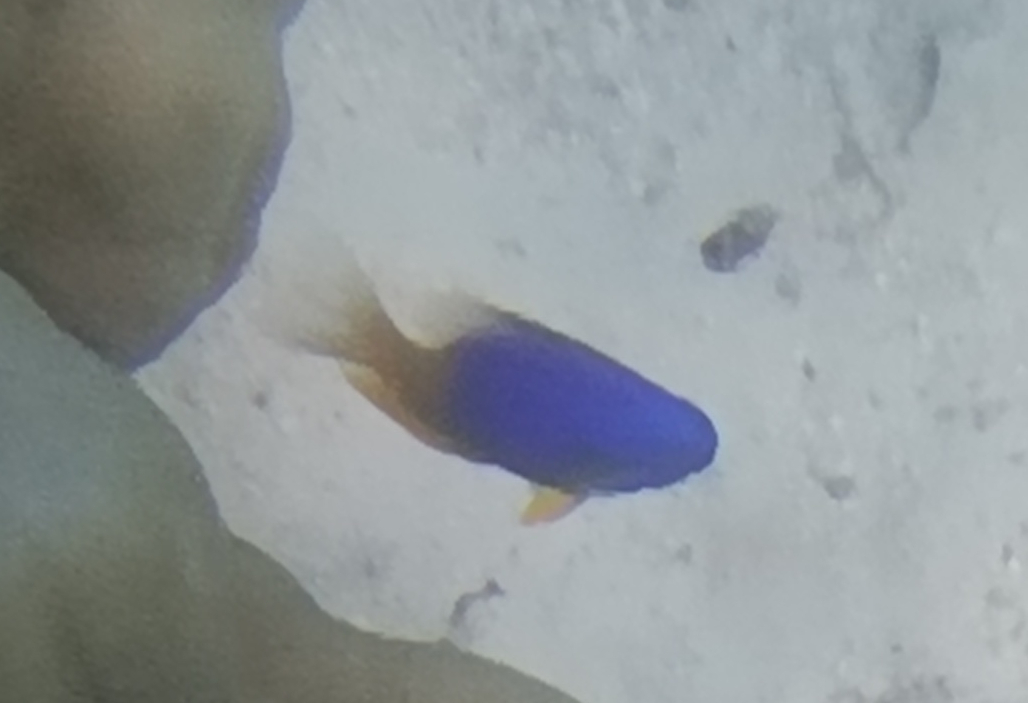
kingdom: Animalia
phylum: Chordata
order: Perciformes
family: Pomacentridae
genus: Pomacentrus
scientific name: Pomacentrus caeruleus
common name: Caerulean damsel
